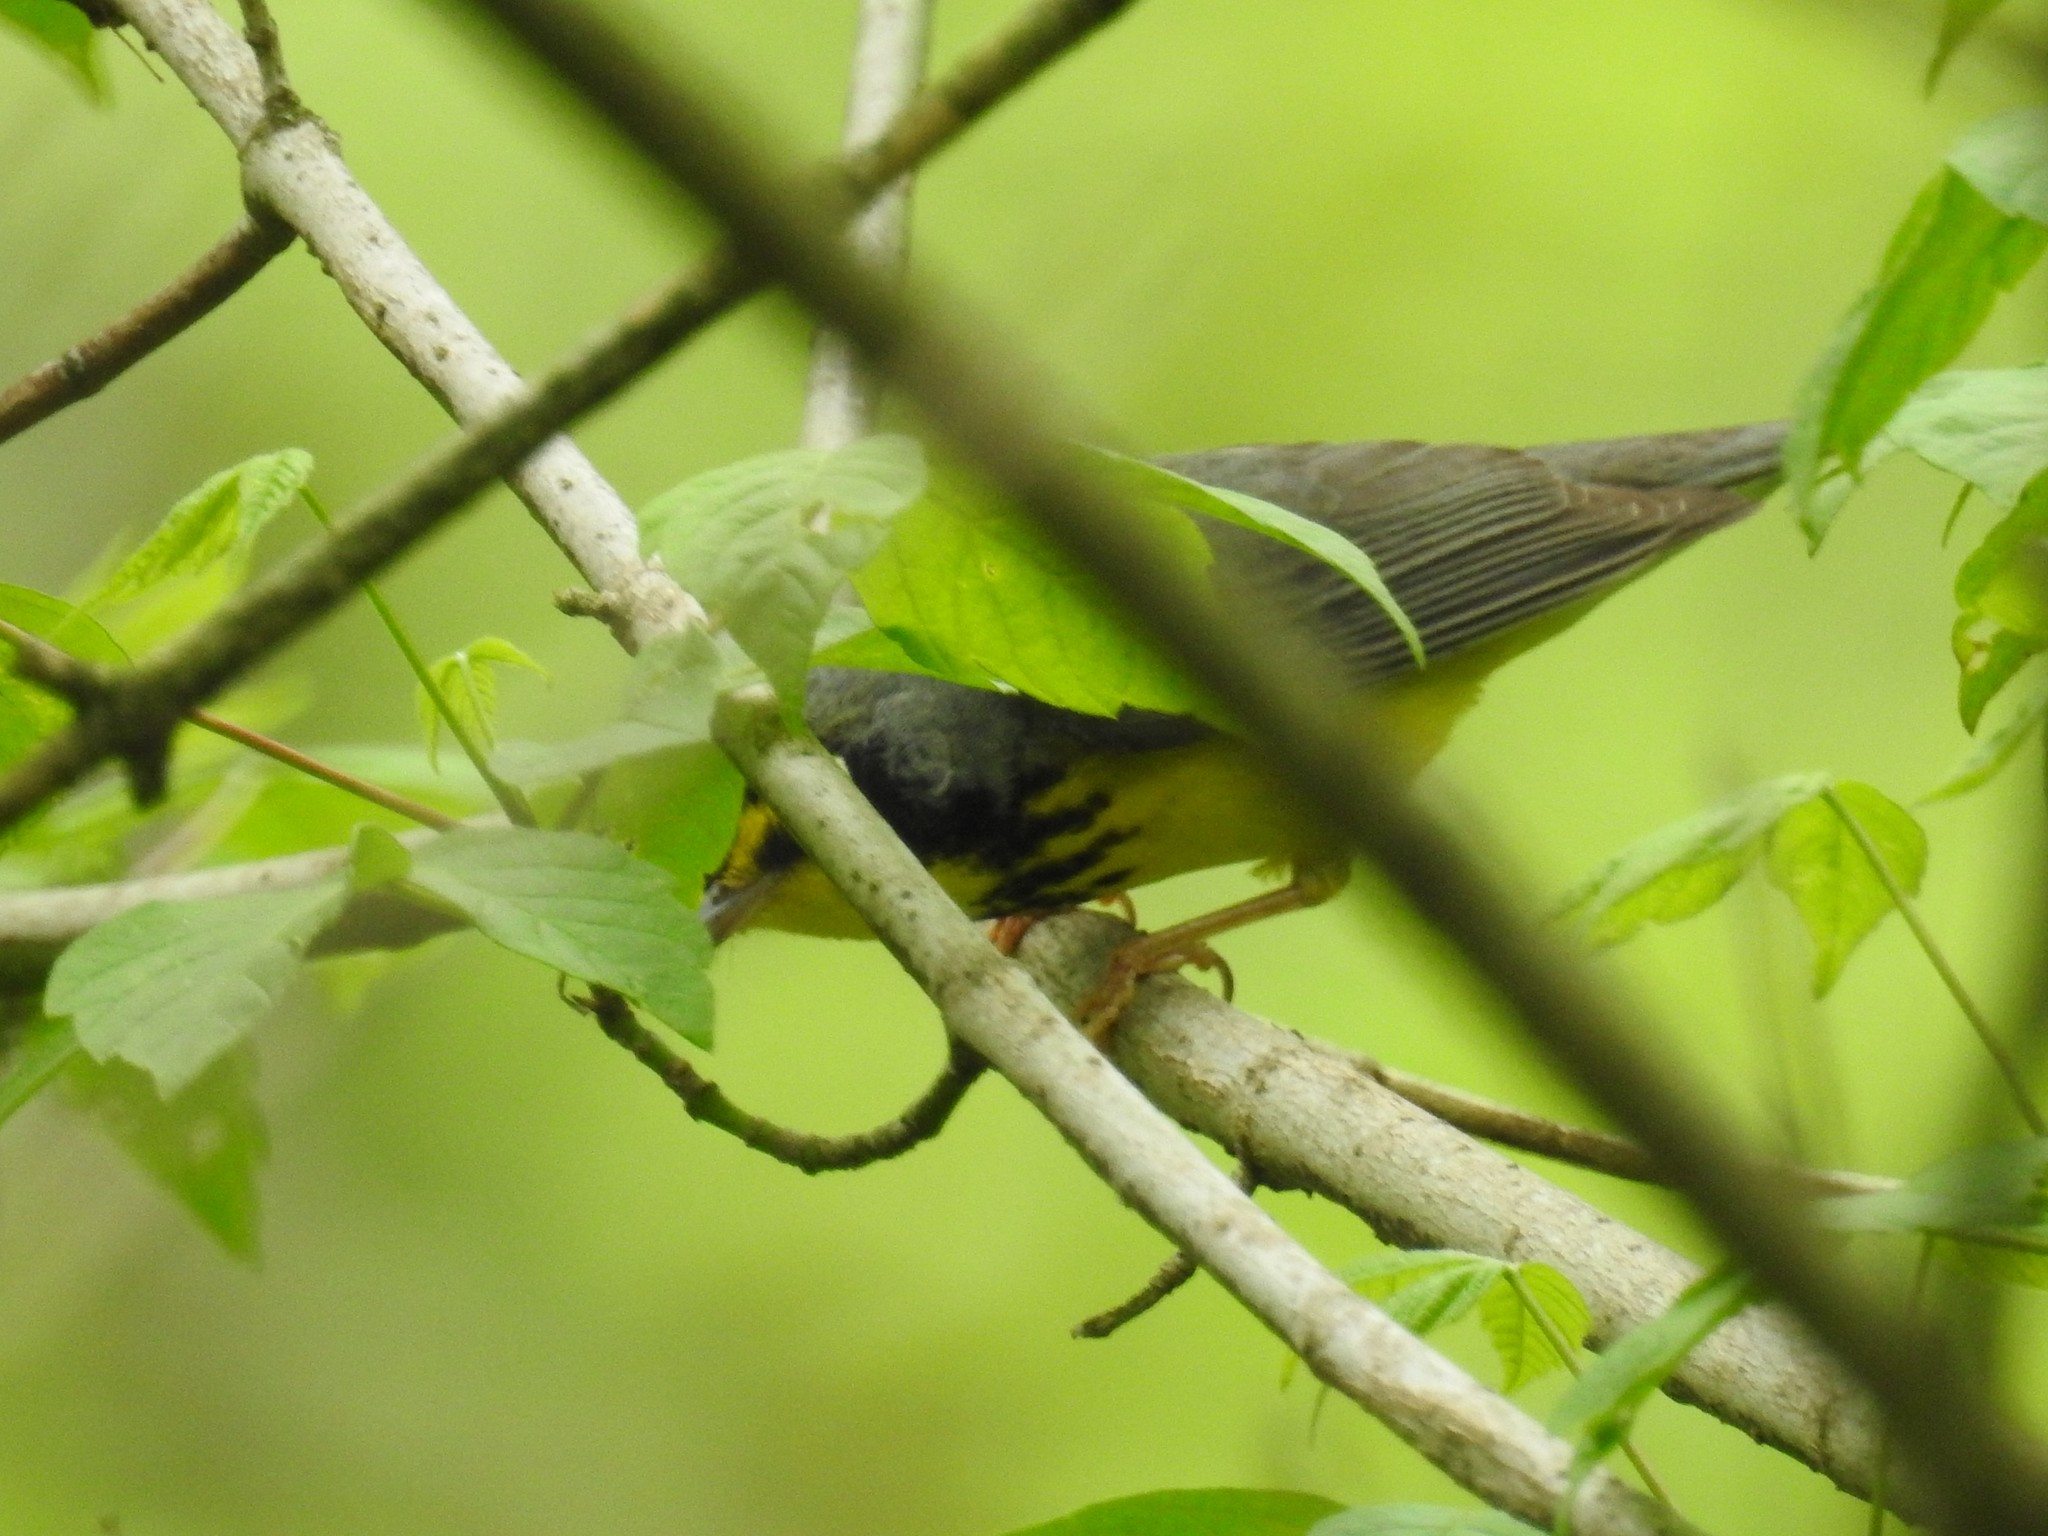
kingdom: Animalia
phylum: Chordata
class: Aves
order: Passeriformes
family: Parulidae
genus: Cardellina
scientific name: Cardellina canadensis
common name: Canada warbler
